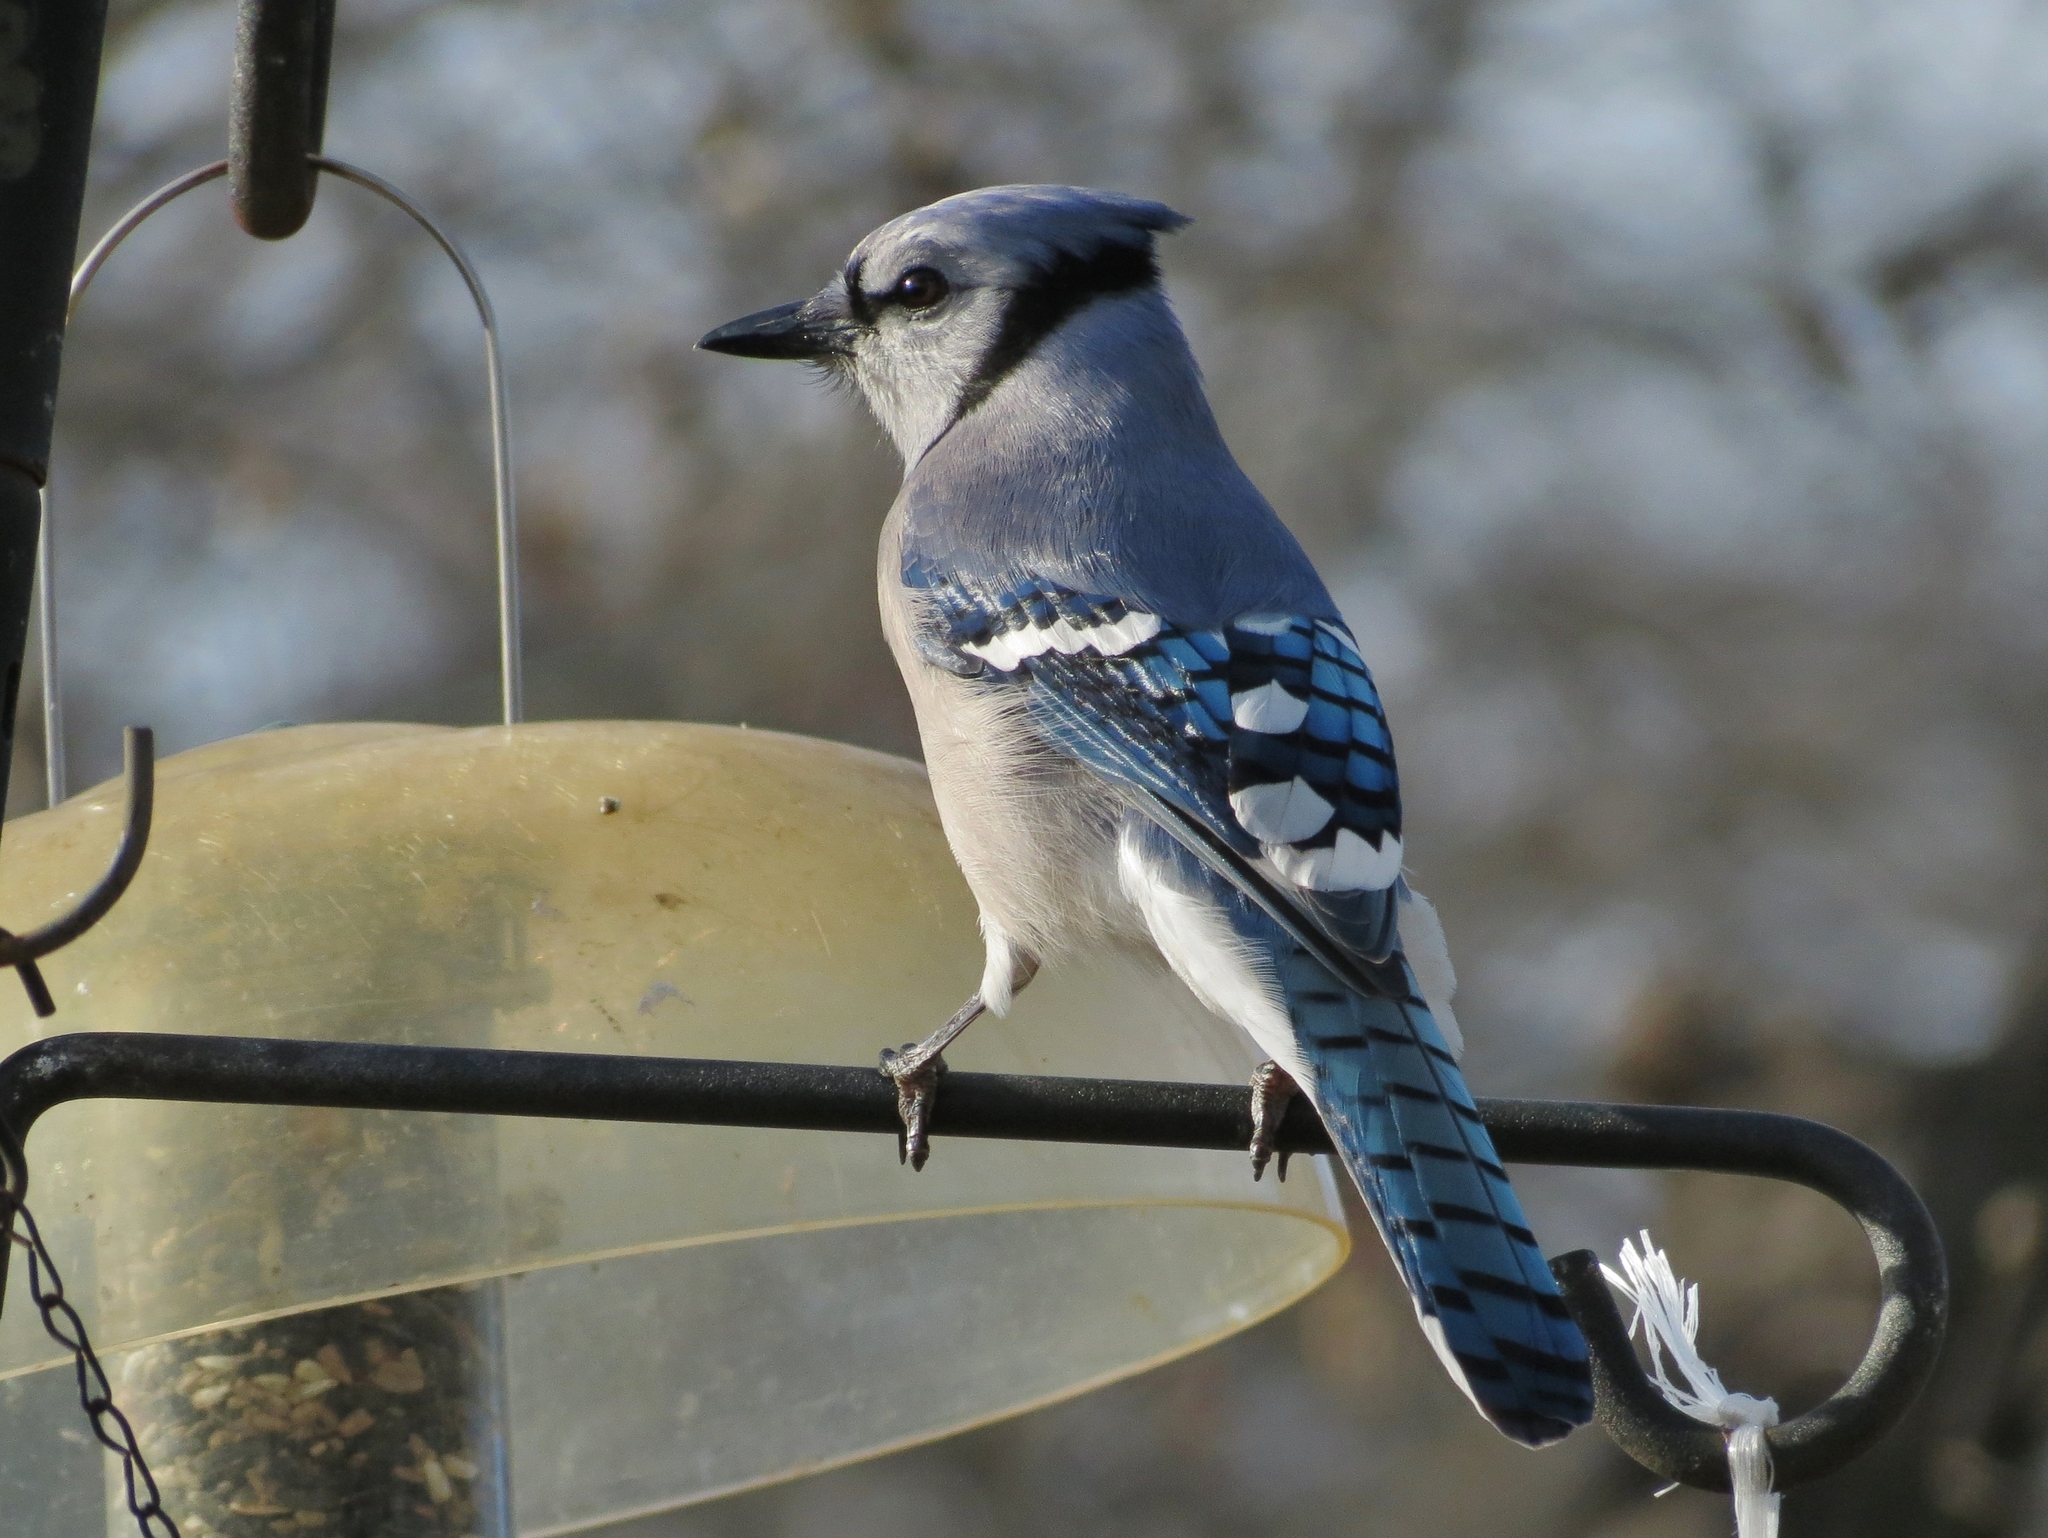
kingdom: Animalia
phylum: Chordata
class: Aves
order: Passeriformes
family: Corvidae
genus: Cyanocitta
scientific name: Cyanocitta cristata
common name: Blue jay
